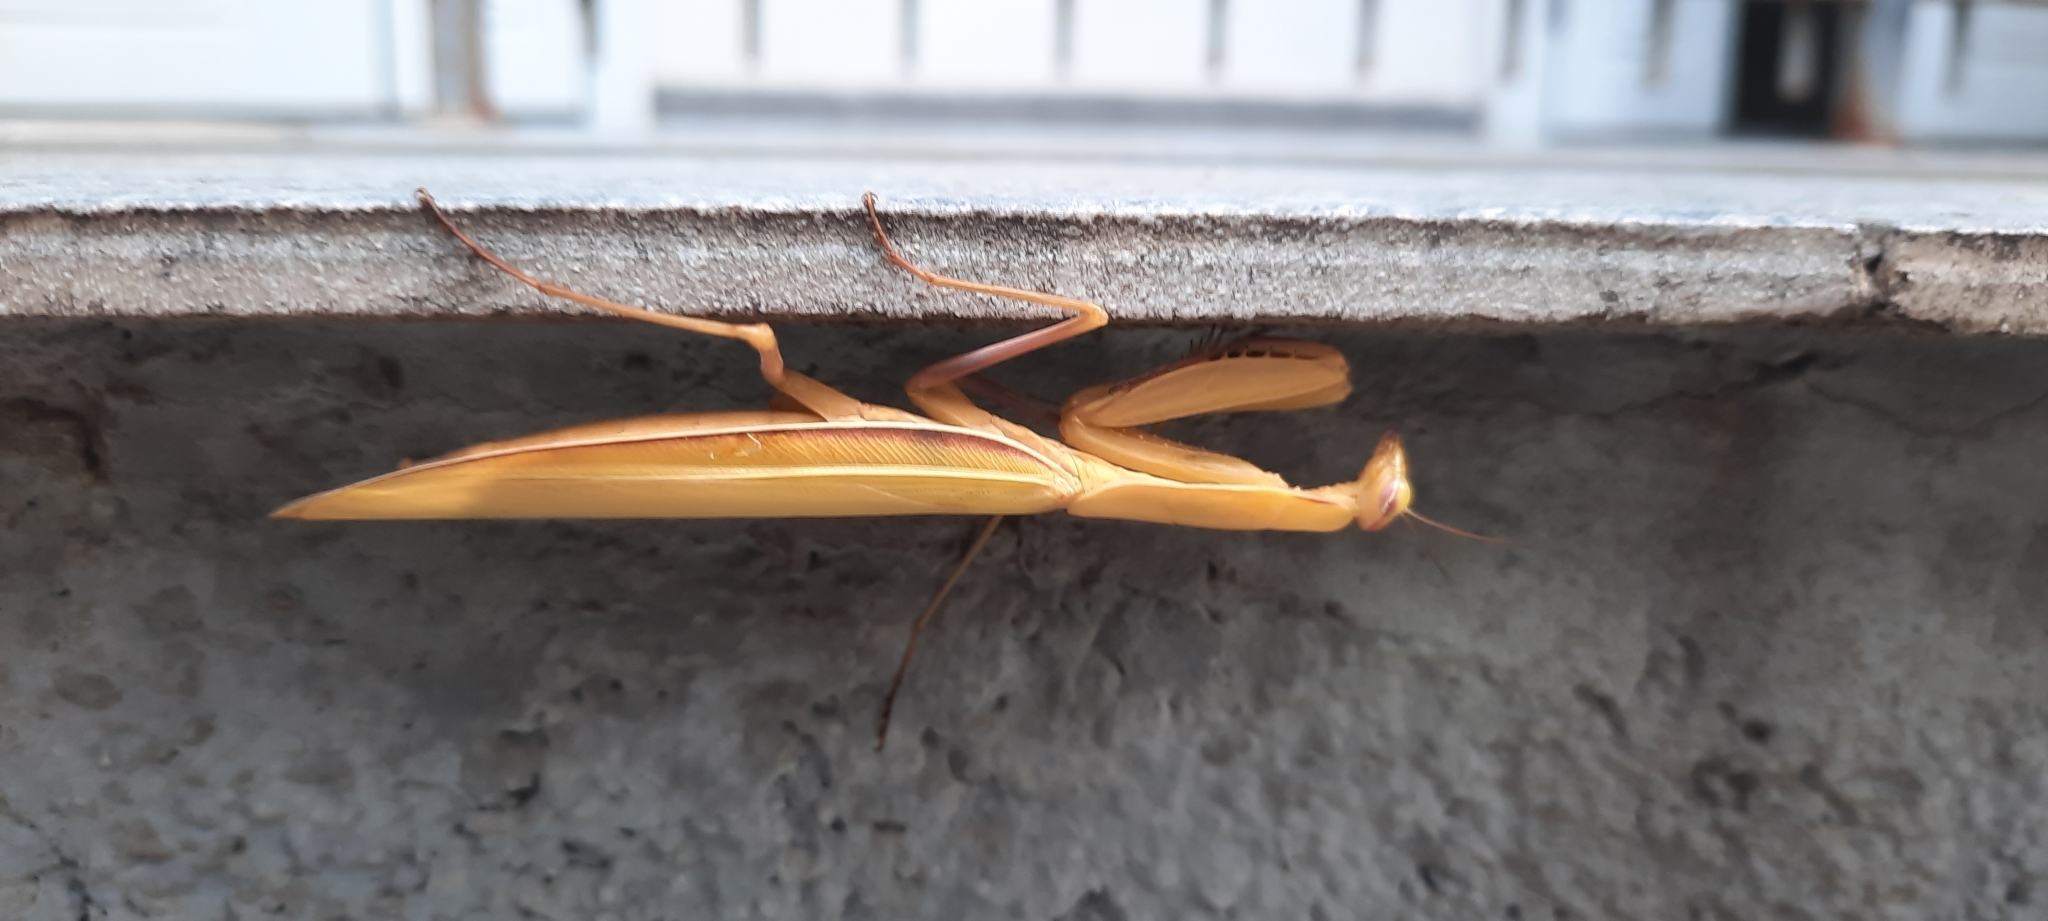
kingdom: Animalia
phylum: Arthropoda
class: Insecta
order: Mantodea
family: Mantidae
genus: Mantis
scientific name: Mantis religiosa
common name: Praying mantis
